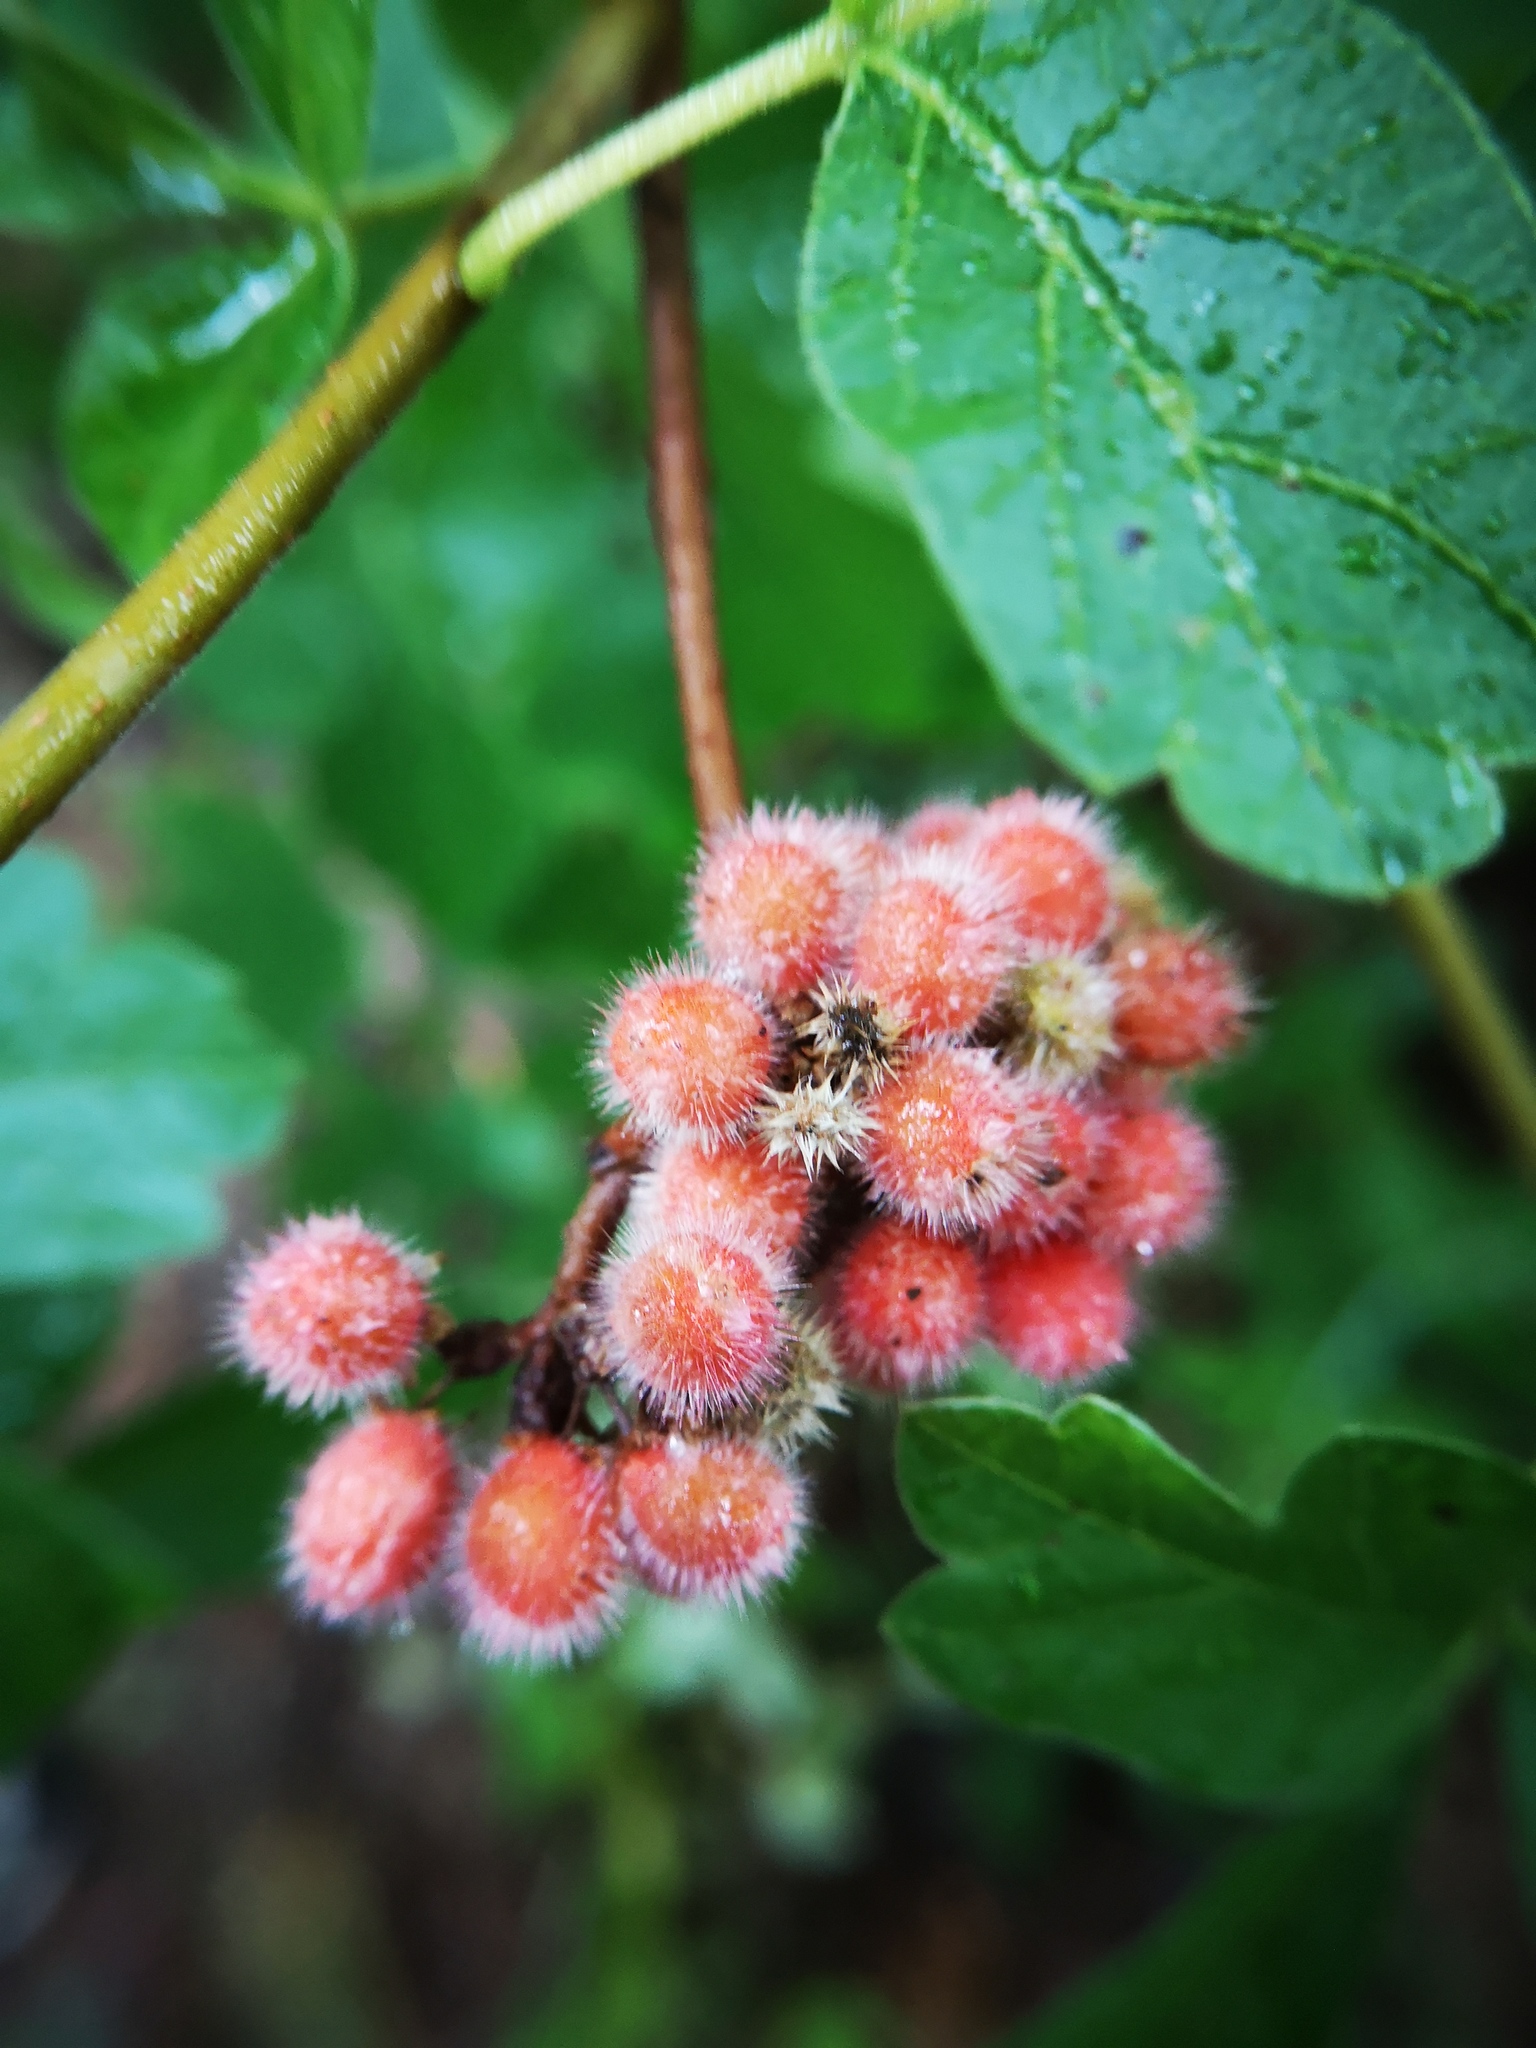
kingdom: Plantae
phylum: Tracheophyta
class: Magnoliopsida
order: Sapindales
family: Anacardiaceae
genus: Rhus
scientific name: Rhus aromatica
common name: Aromatic sumac
